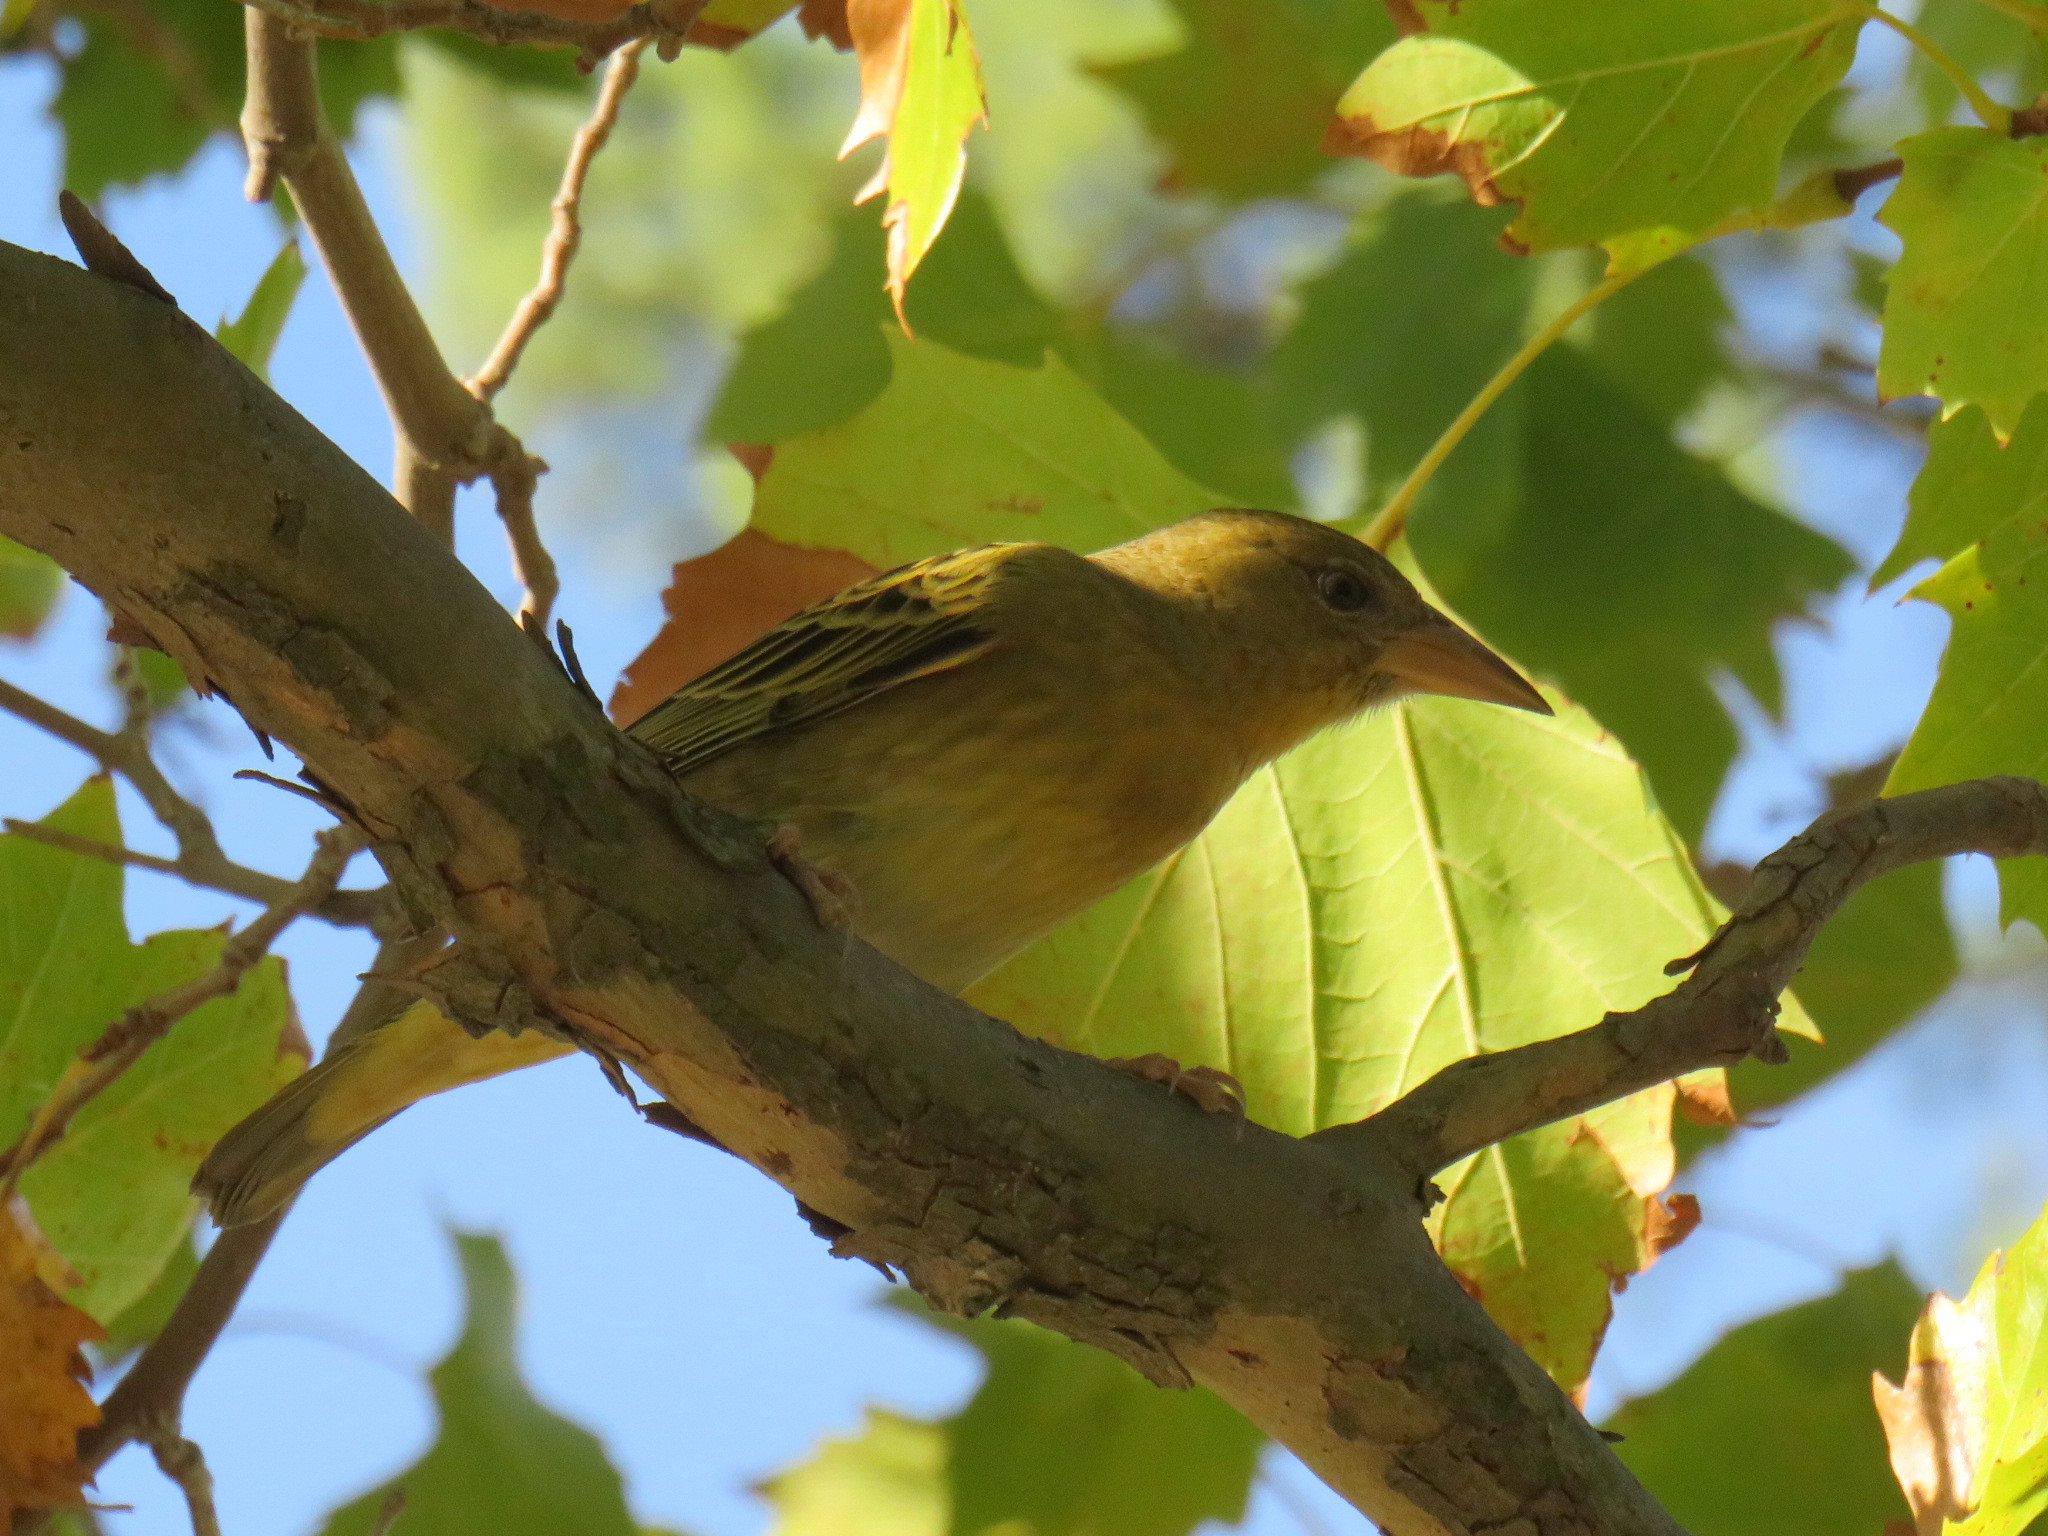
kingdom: Animalia
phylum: Chordata
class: Aves
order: Passeriformes
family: Ploceidae
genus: Ploceus
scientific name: Ploceus capensis
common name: Cape weaver
